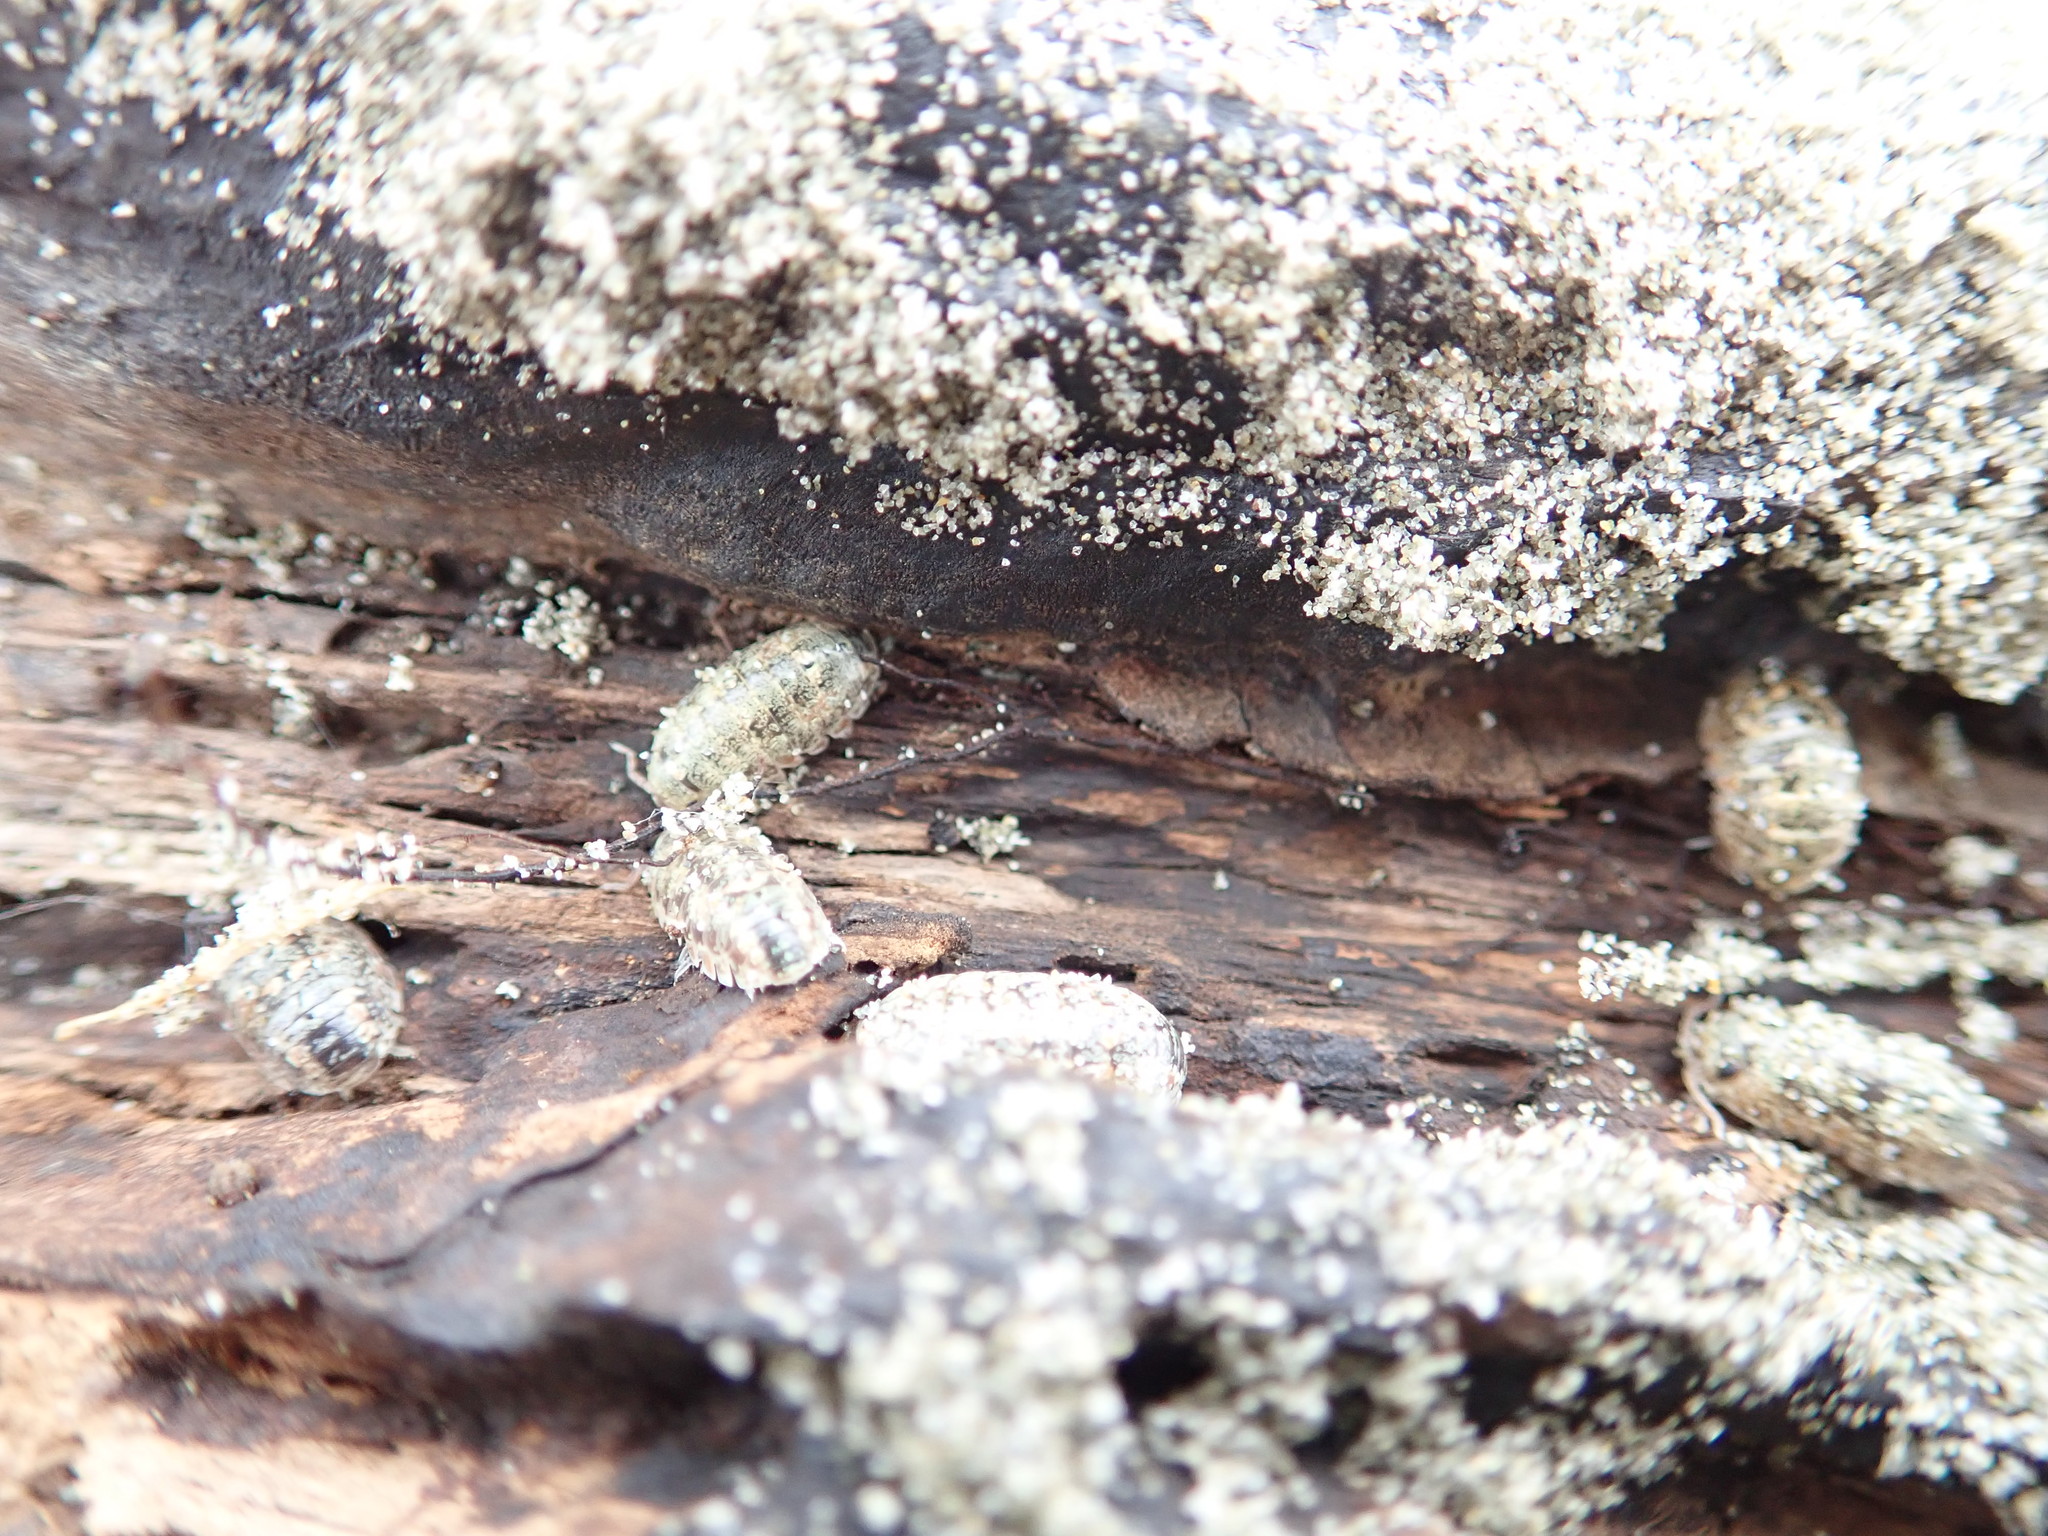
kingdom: Animalia
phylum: Arthropoda
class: Malacostraca
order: Isopoda
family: Tylidae
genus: Tylos
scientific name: Tylos neozelanicus
